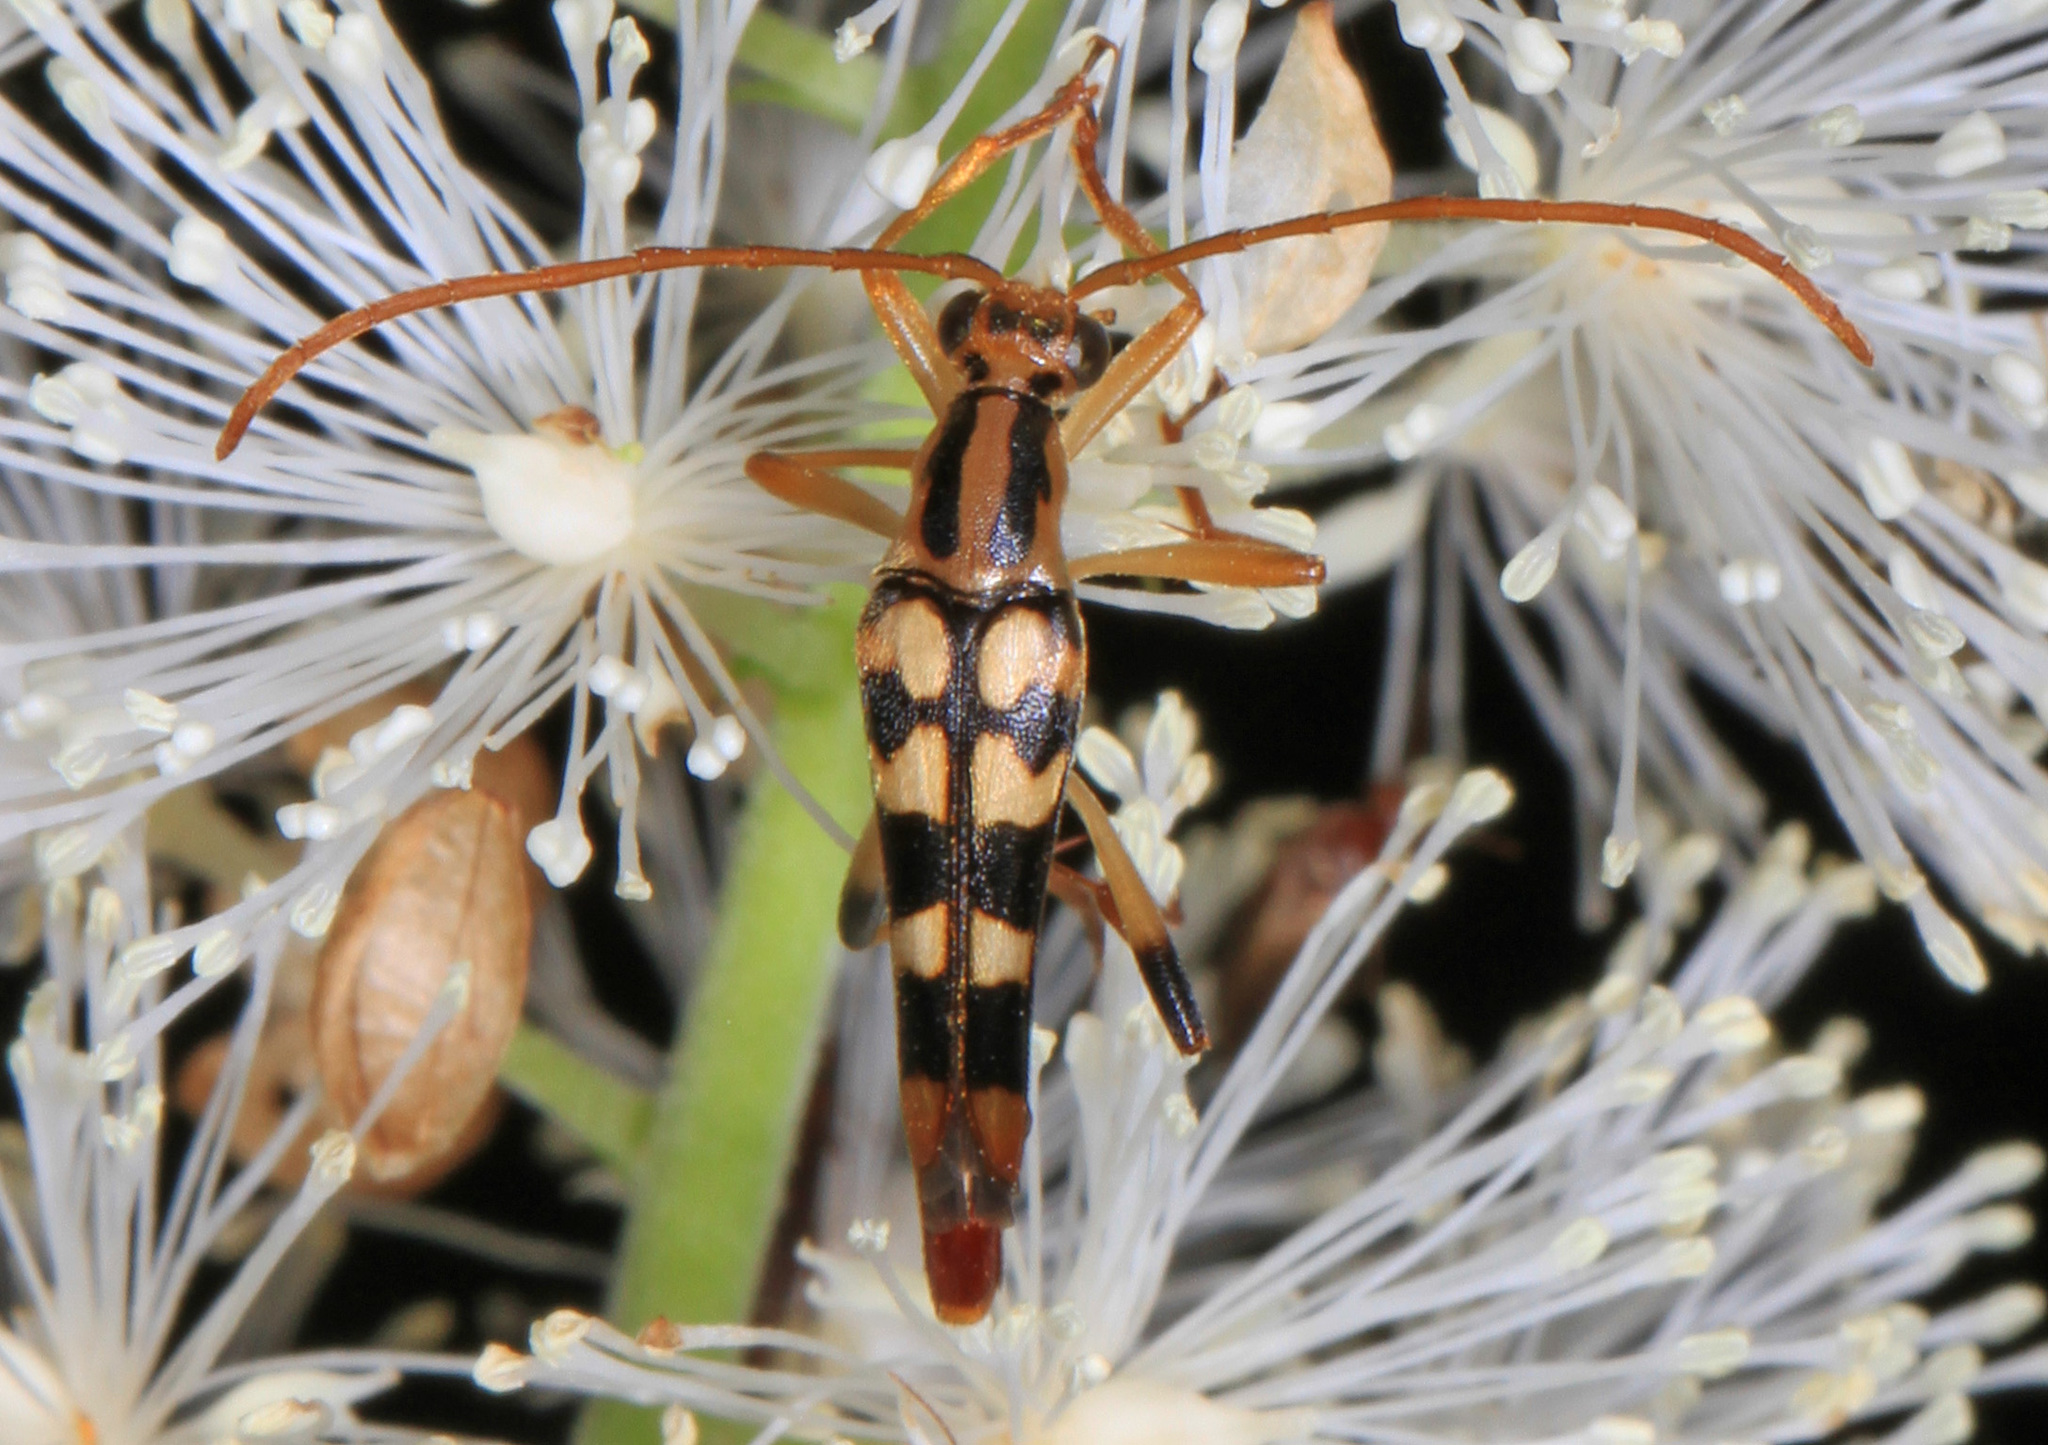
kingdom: Animalia
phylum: Arthropoda
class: Insecta
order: Coleoptera
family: Cerambycidae
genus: Strangalia
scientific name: Strangalia luteicornis
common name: Yellow-horned flower longhorn beetle
